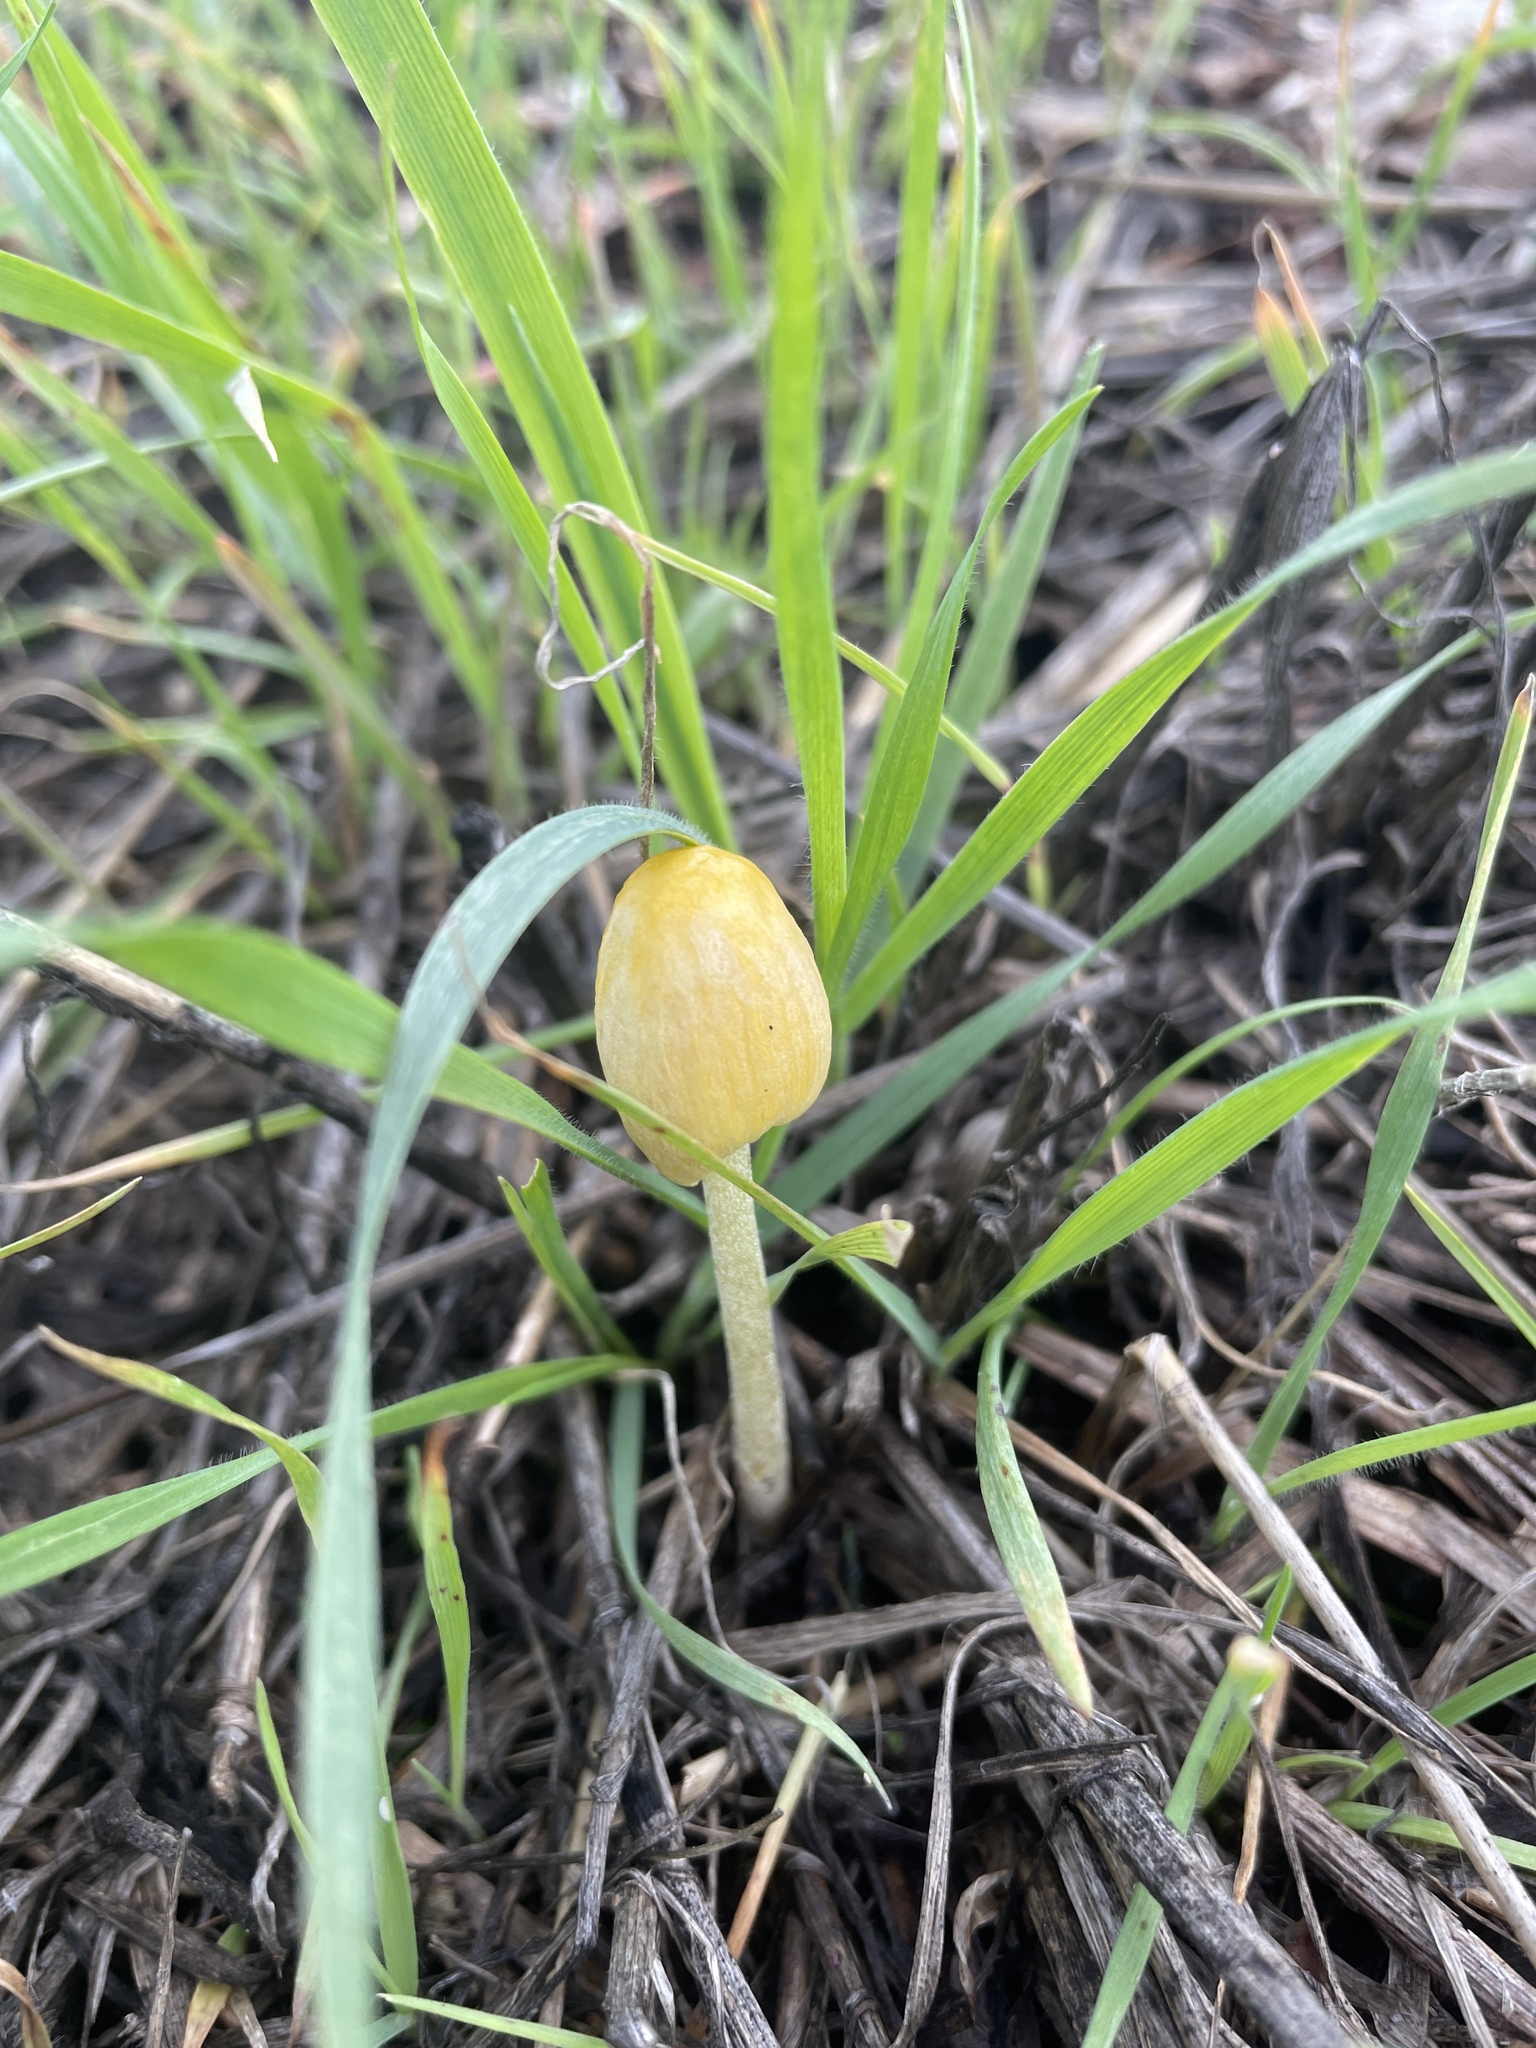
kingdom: Fungi
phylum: Basidiomycota
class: Agaricomycetes
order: Agaricales
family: Bolbitiaceae
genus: Bolbitius
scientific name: Bolbitius titubans
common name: Yellow fieldcap
